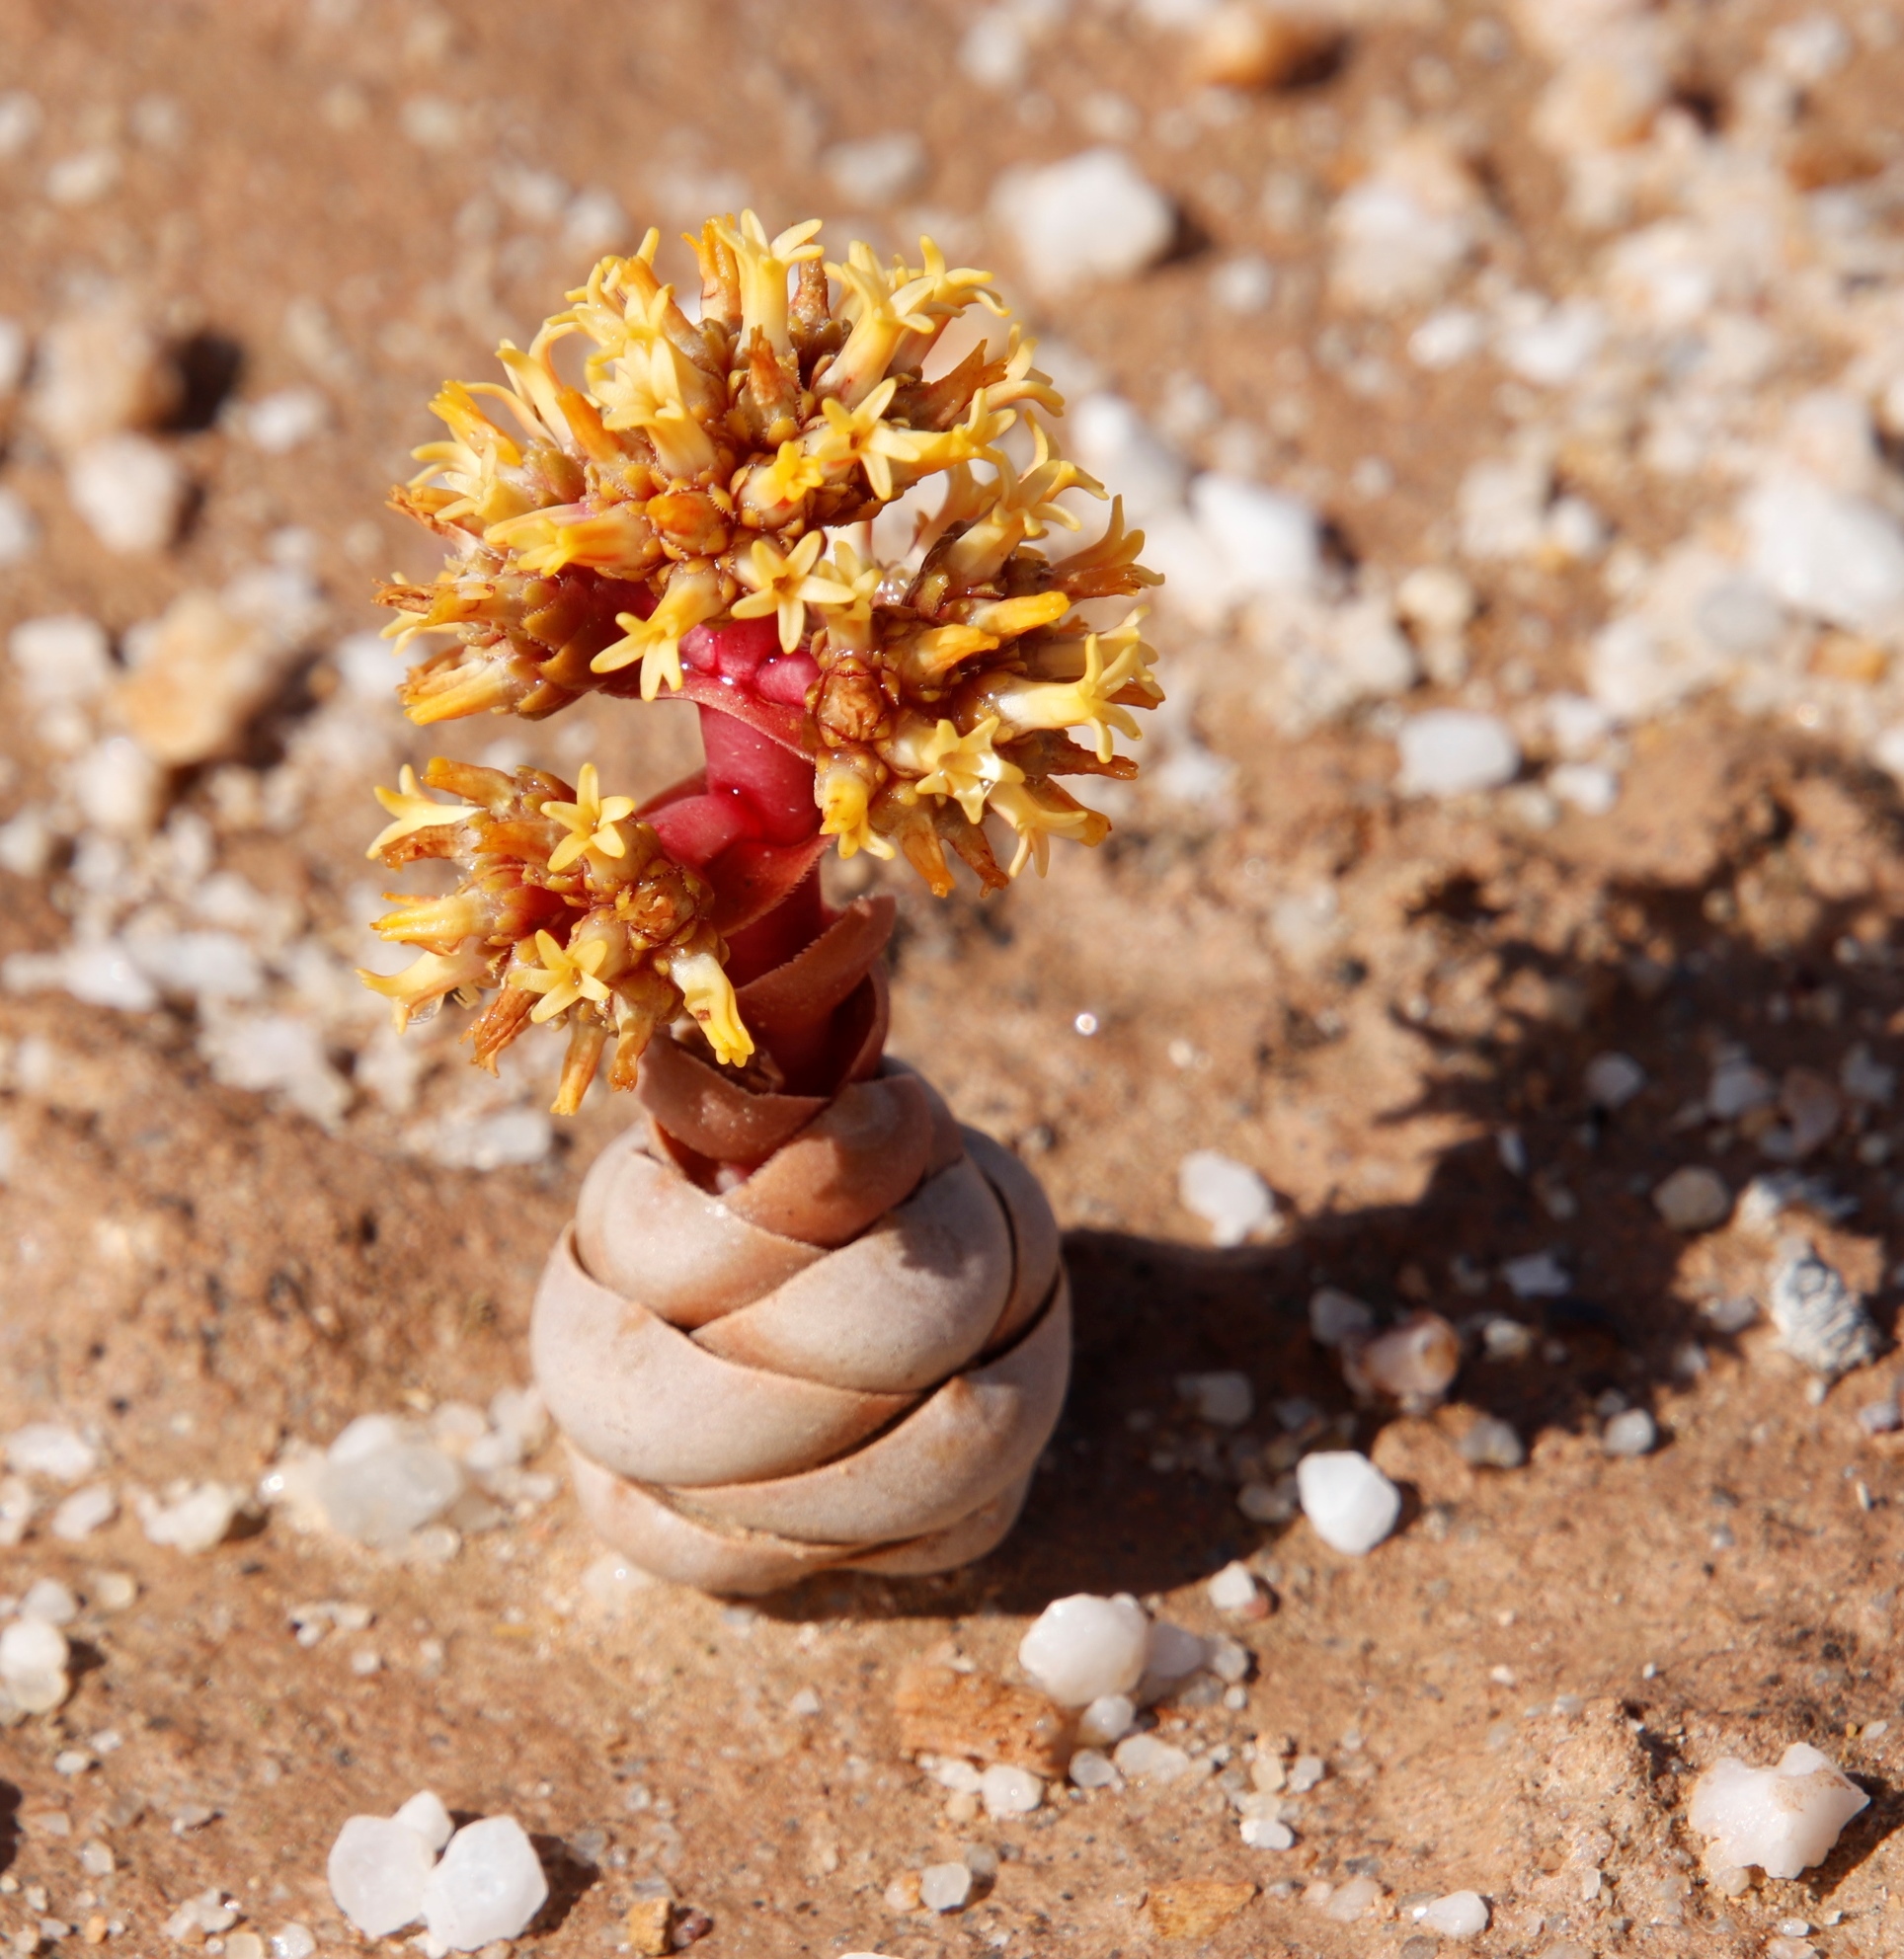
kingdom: Plantae
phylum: Tracheophyta
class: Magnoliopsida
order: Saxifragales
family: Crassulaceae
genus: Crassula
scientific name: Crassula columnaris
